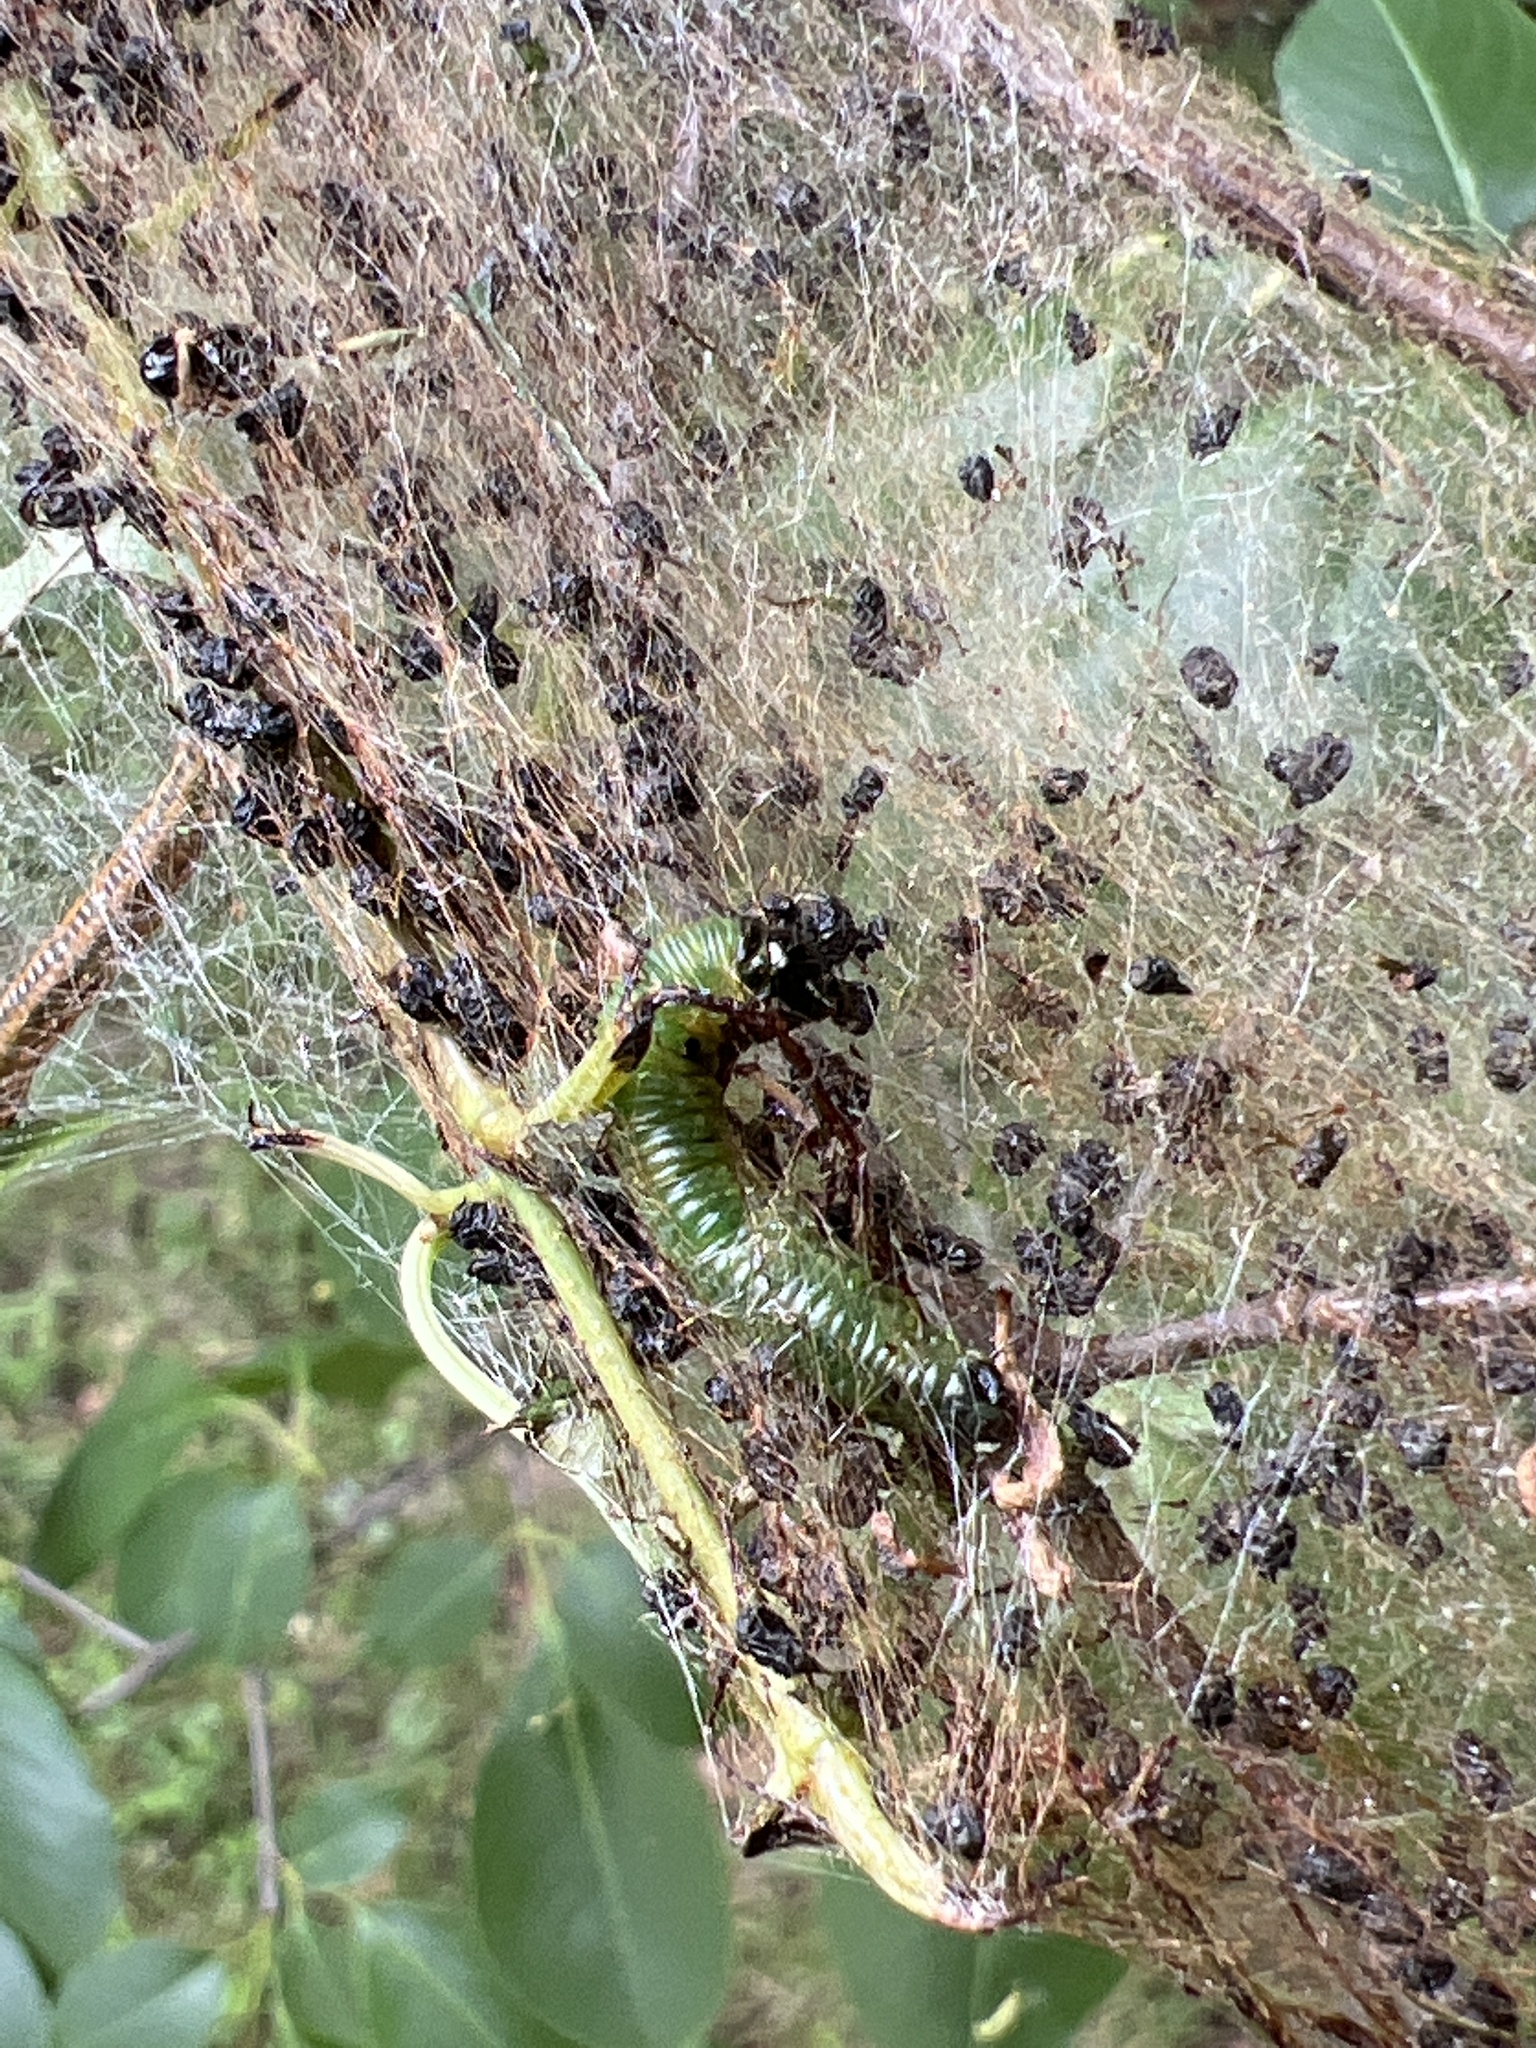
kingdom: Animalia
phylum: Arthropoda
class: Insecta
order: Hymenoptera
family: Pamphiliidae
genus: Neurotoma
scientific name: Neurotoma edwardi
